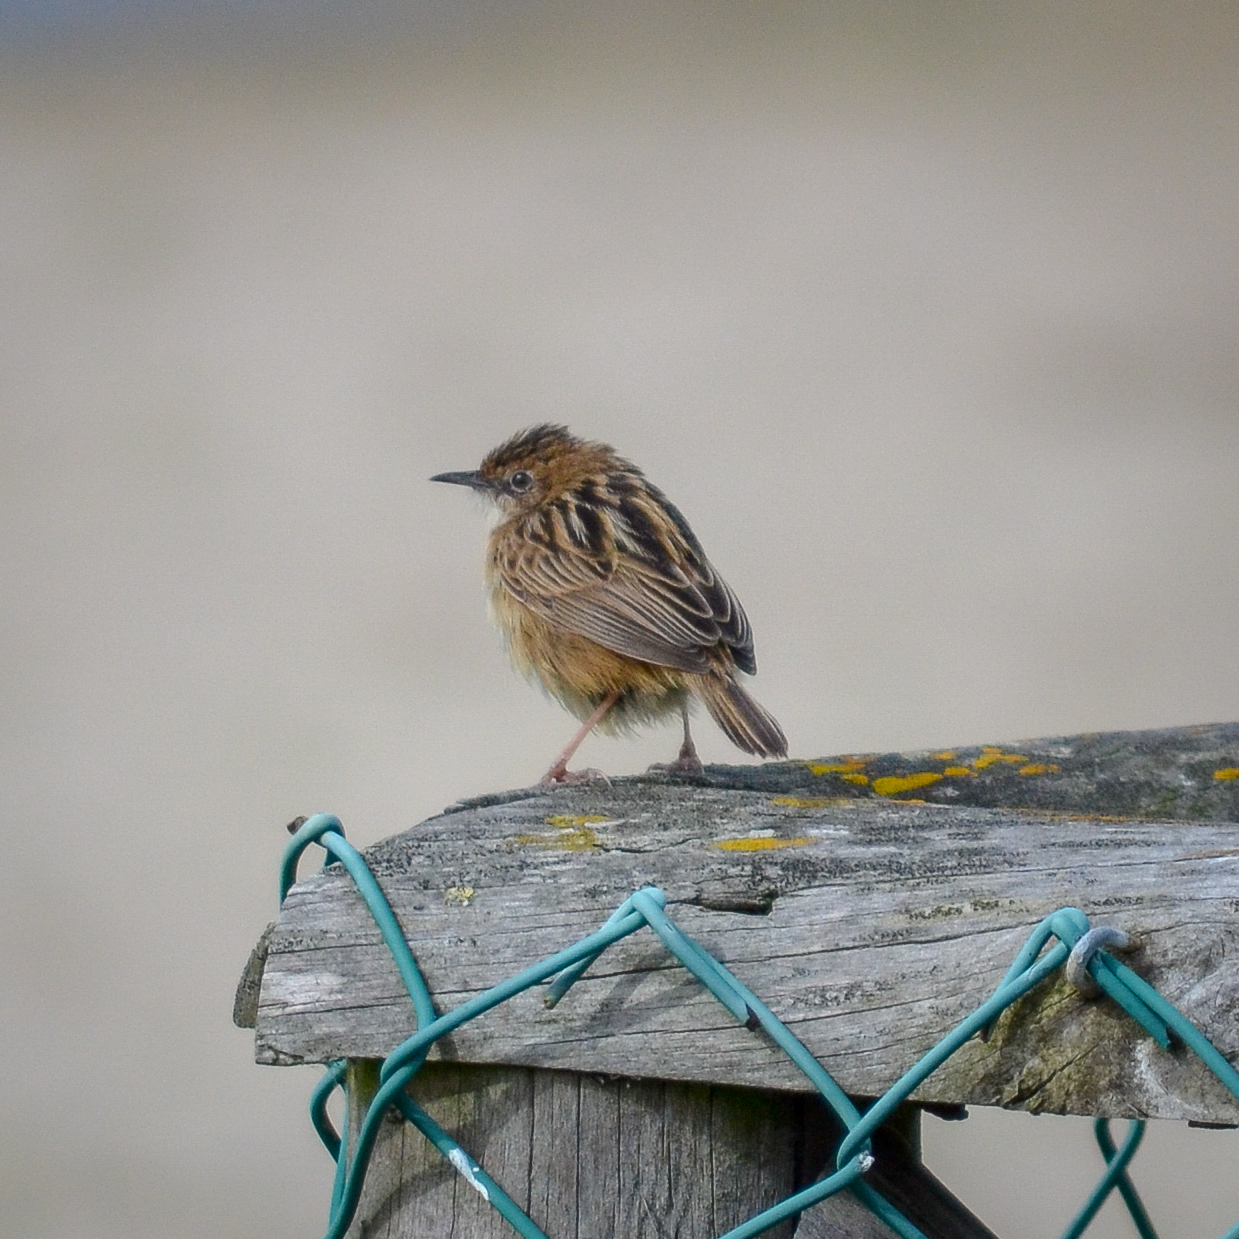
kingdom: Animalia
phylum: Chordata
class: Aves
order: Passeriformes
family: Cisticolidae
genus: Cisticola
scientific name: Cisticola juncidis
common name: Zitting cisticola
